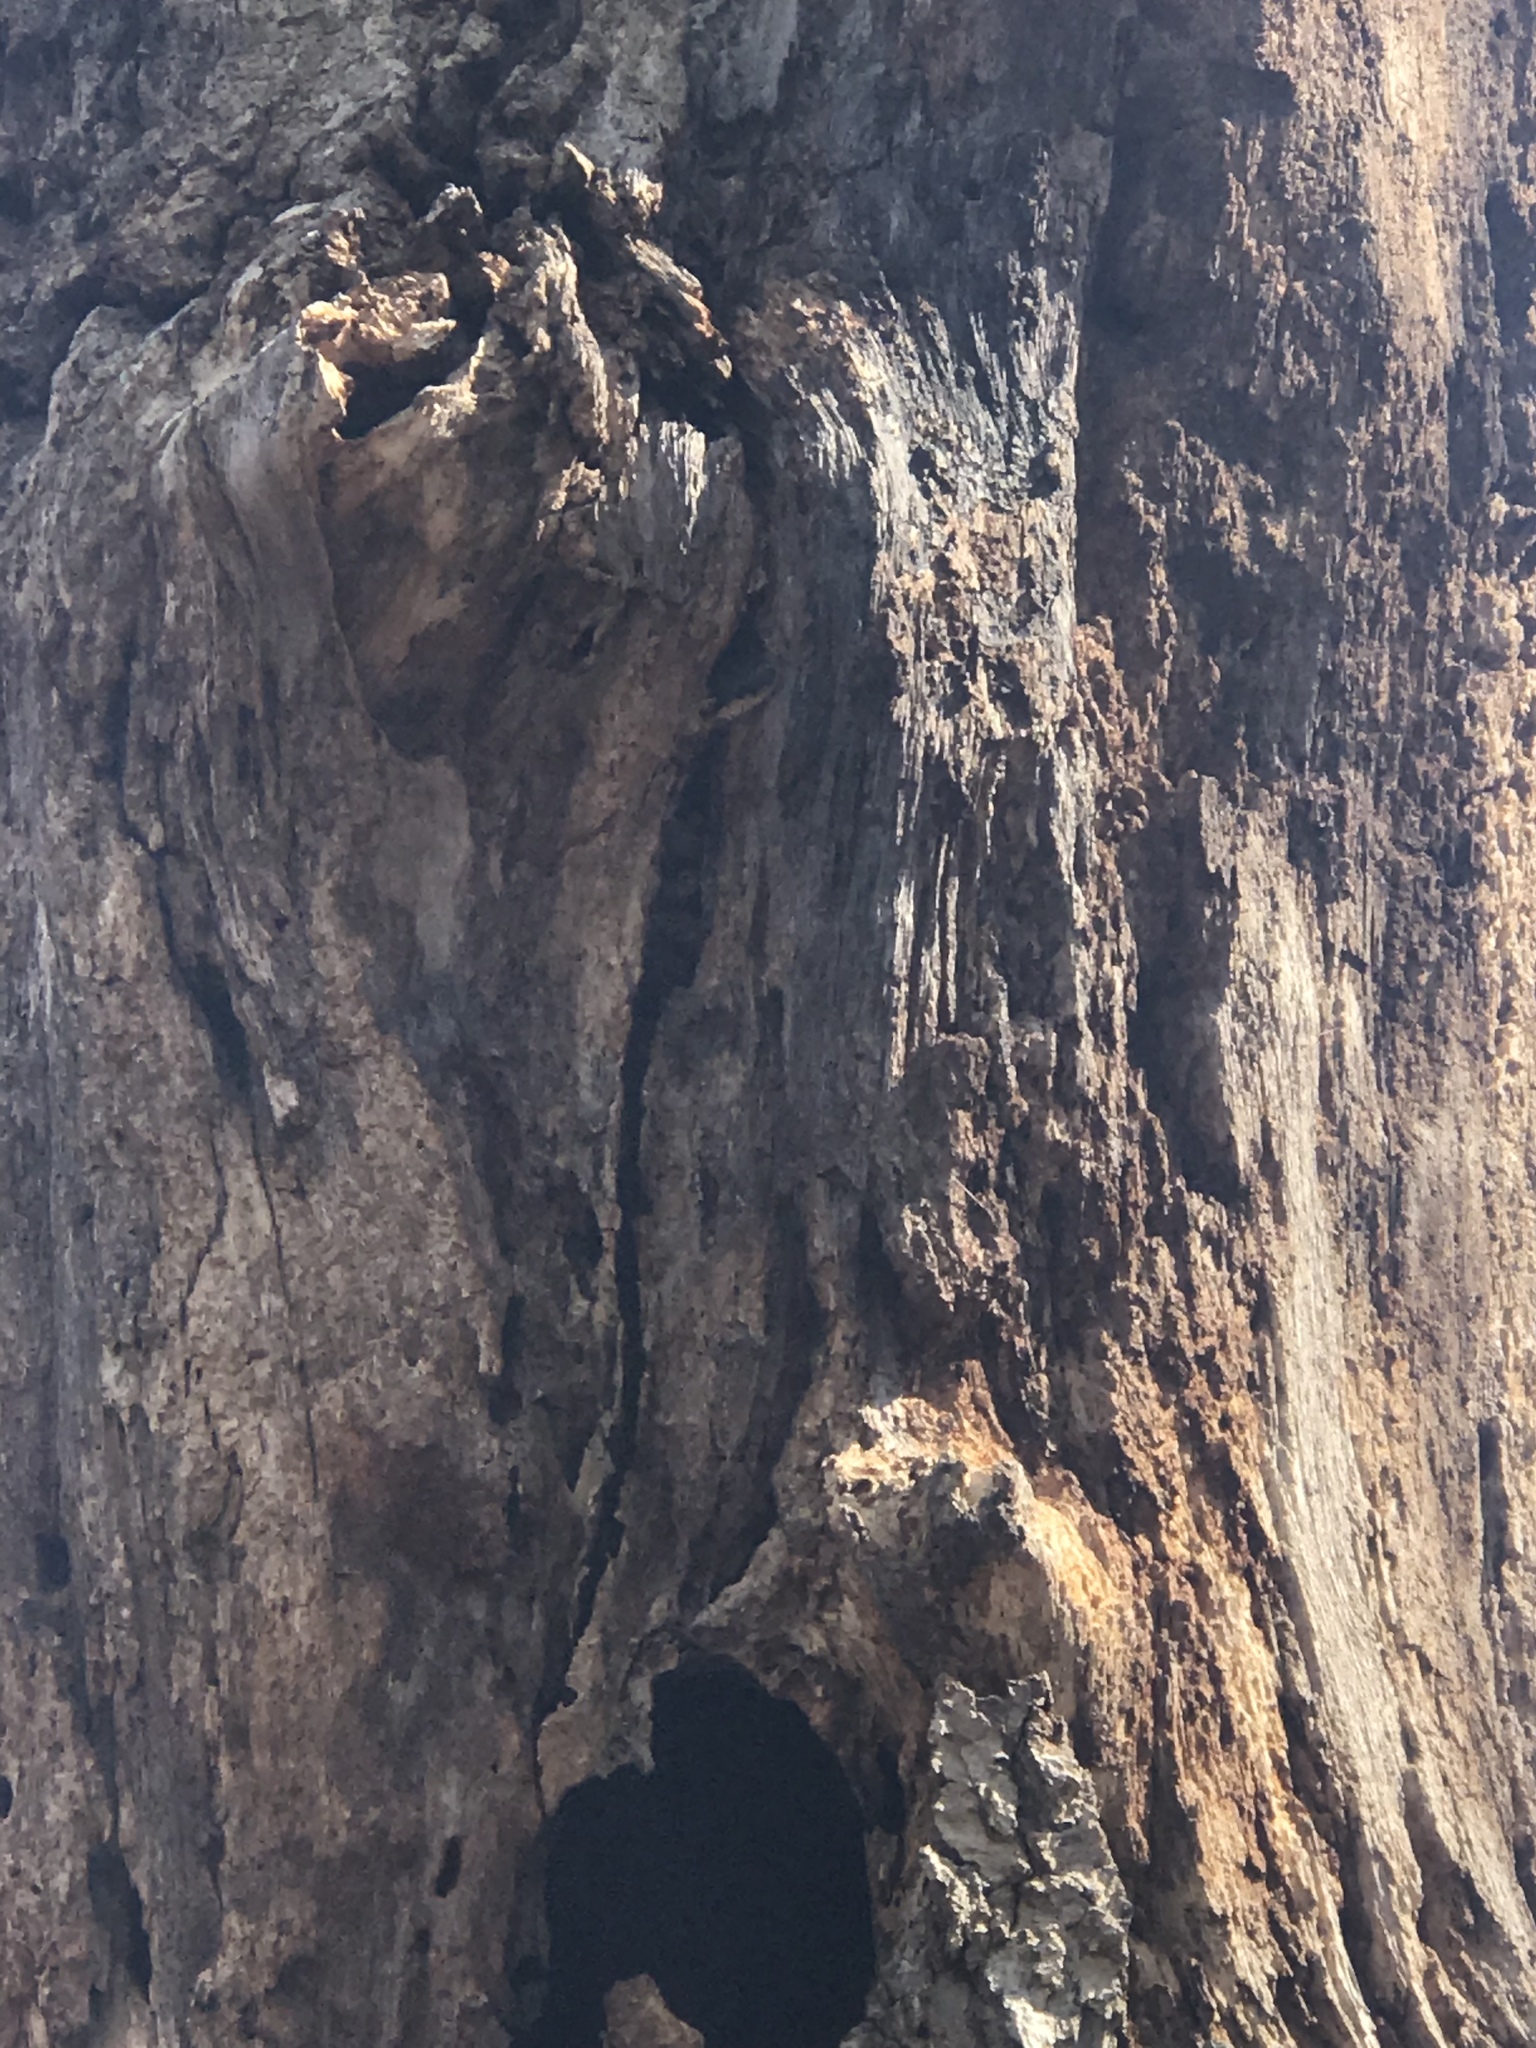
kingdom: Animalia
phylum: Chordata
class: Squamata
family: Colubridae
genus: Pantherophis
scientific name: Pantherophis alleghaniensis
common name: Eastern rat snake
